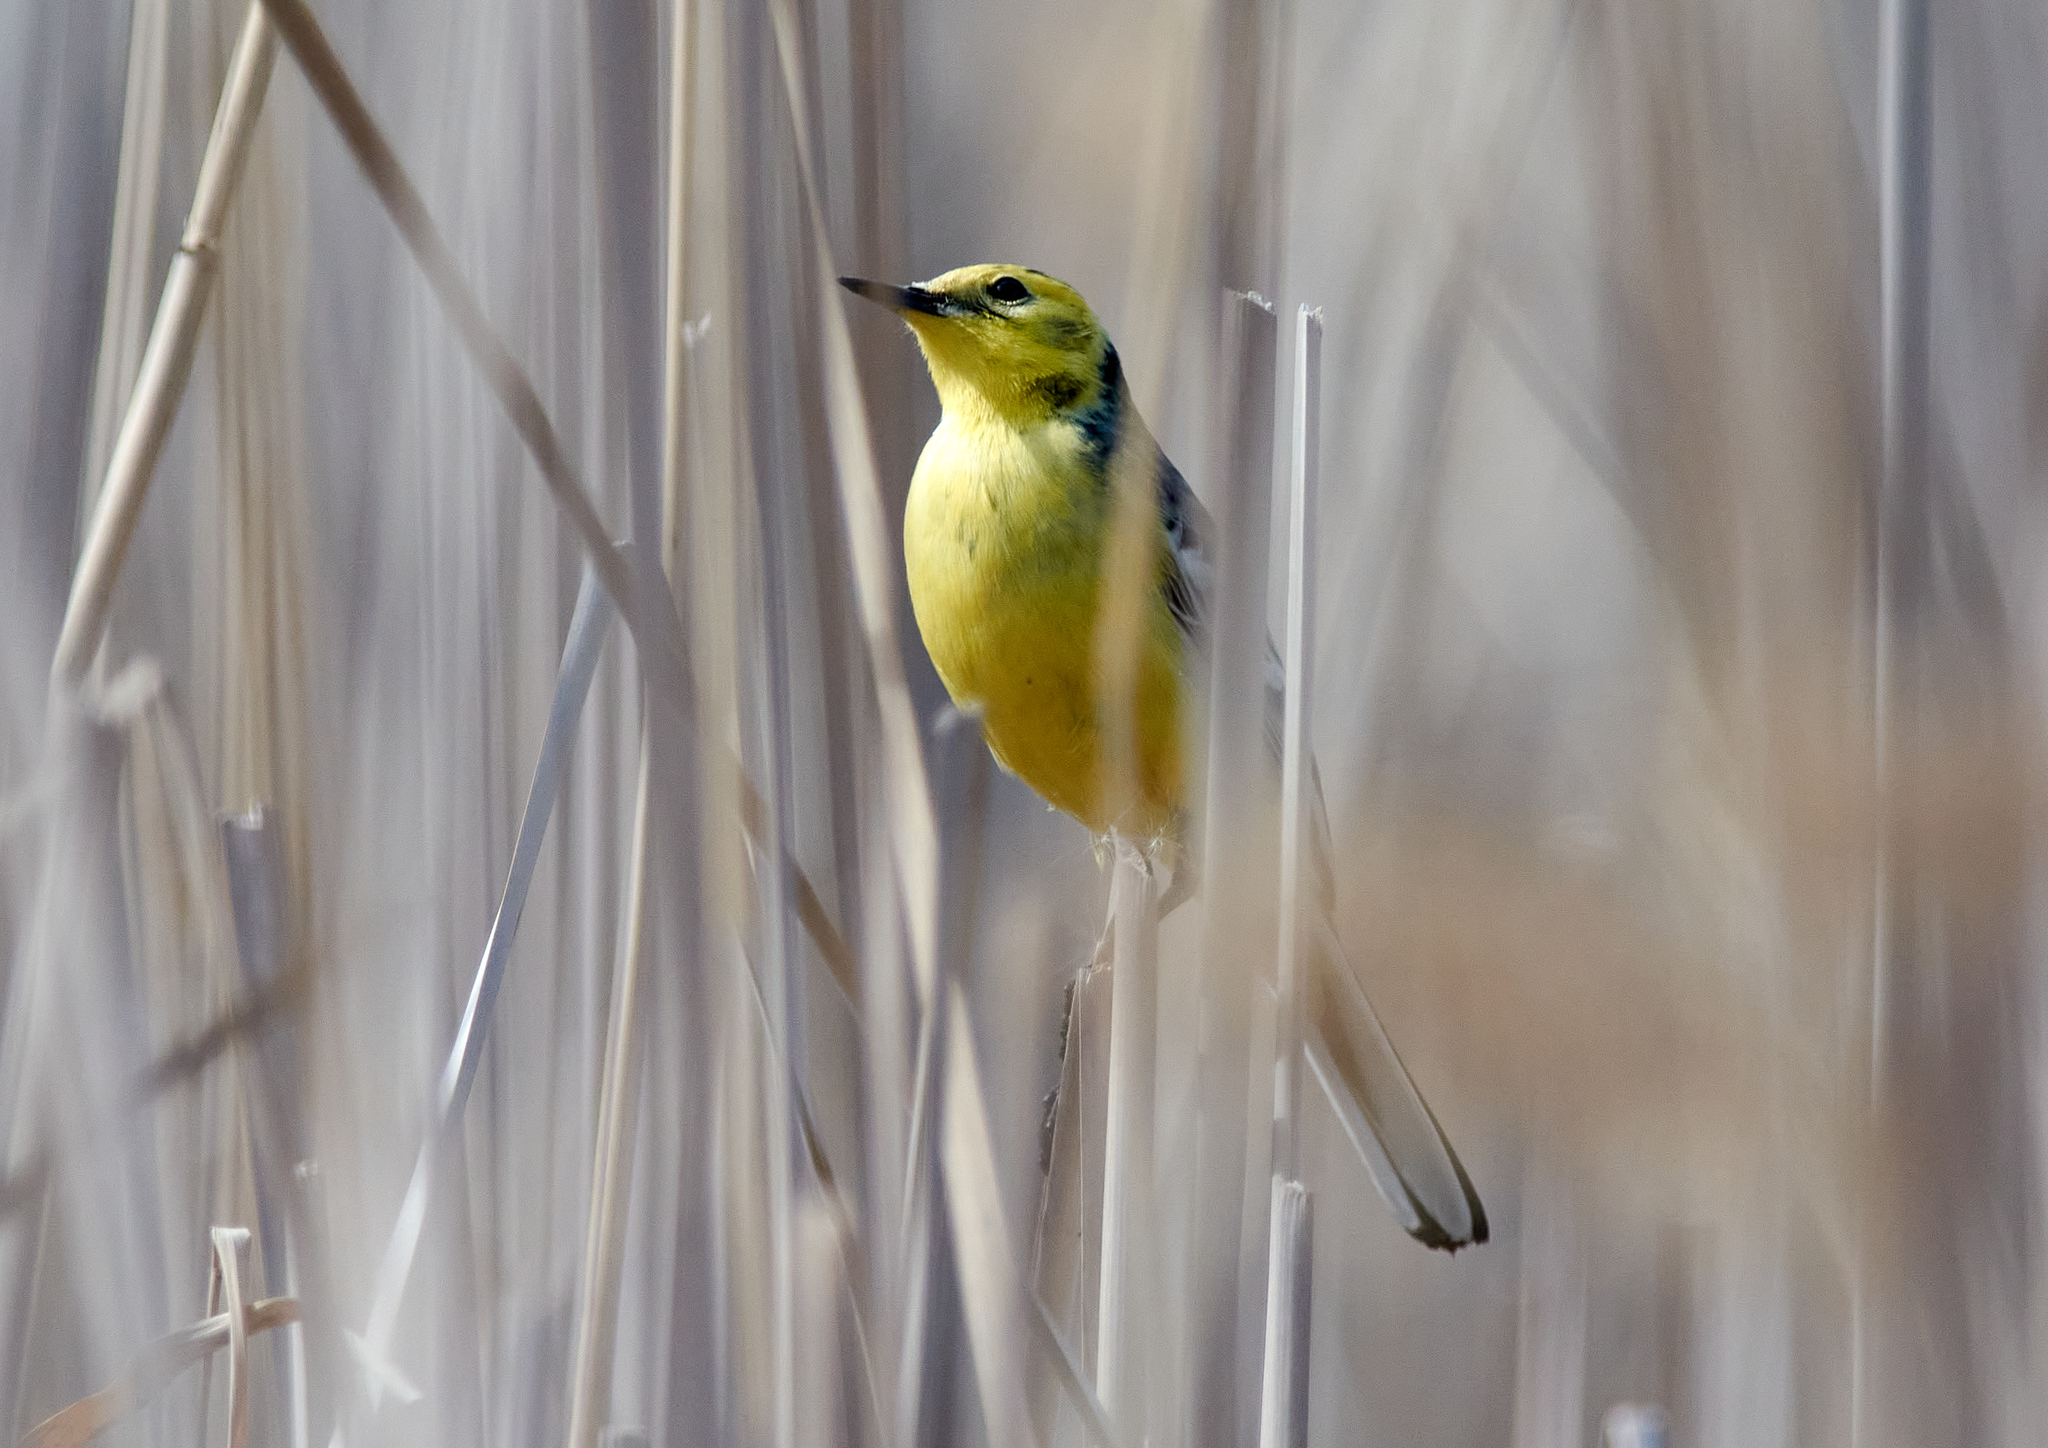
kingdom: Animalia
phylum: Chordata
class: Aves
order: Passeriformes
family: Motacillidae
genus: Motacilla
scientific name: Motacilla citreola
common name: Citrine wagtail
